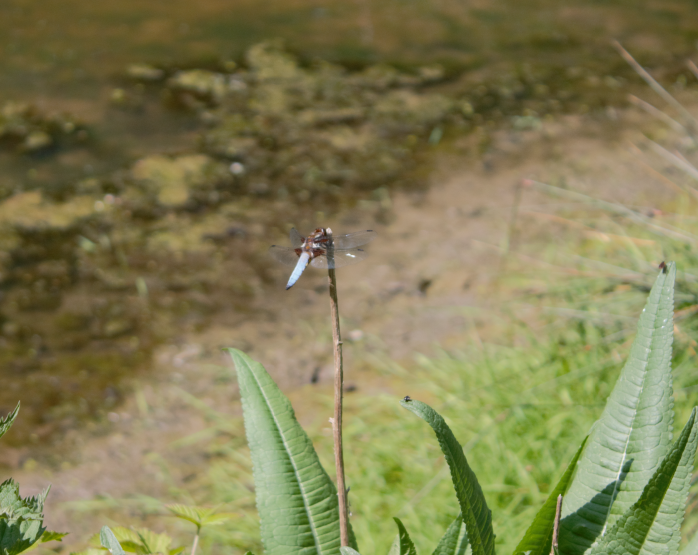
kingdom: Animalia
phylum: Arthropoda
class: Insecta
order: Odonata
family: Libellulidae
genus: Libellula
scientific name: Libellula depressa
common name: Broad-bodied chaser
